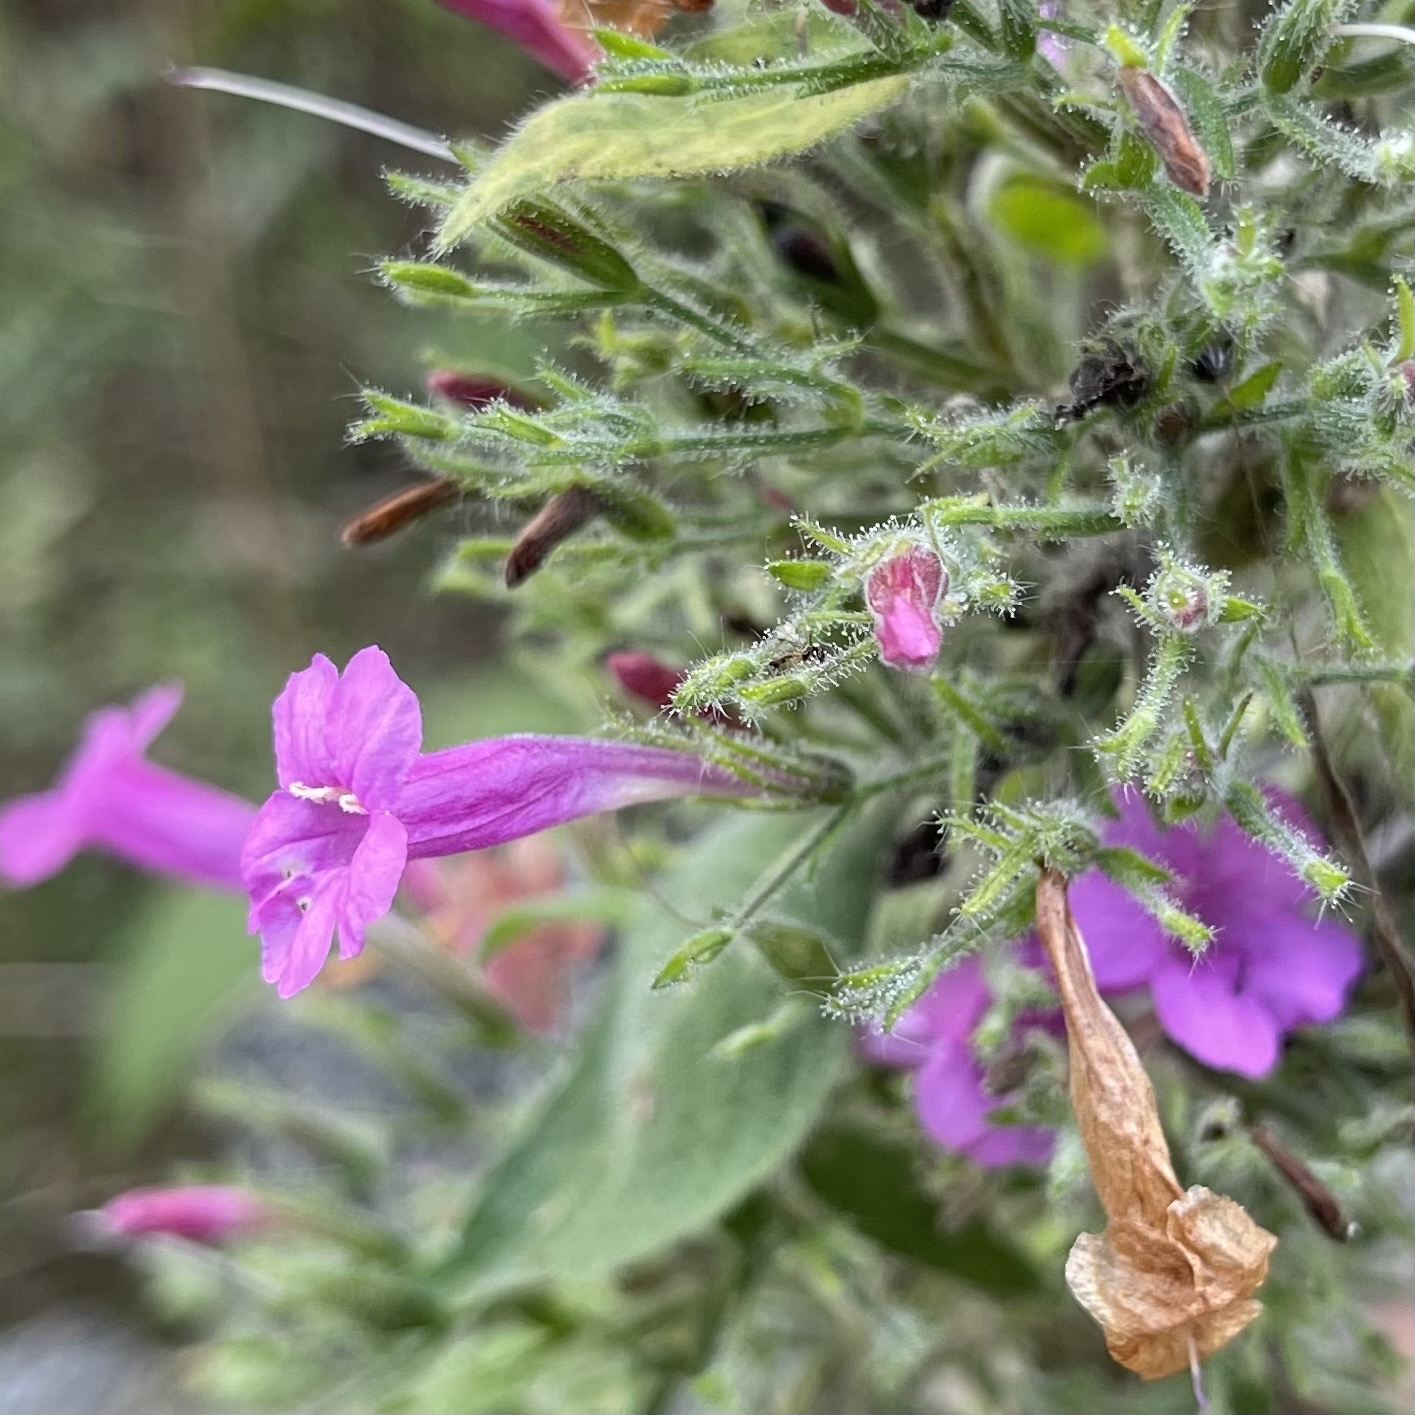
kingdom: Plantae
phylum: Tracheophyta
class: Magnoliopsida
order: Lamiales
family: Acanthaceae
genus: Ruellia
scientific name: Ruellia inundata
